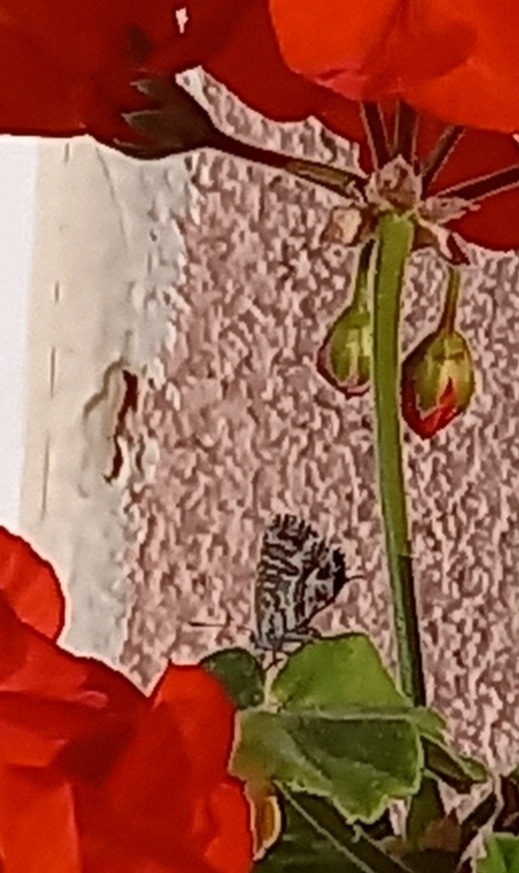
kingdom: Animalia
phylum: Arthropoda
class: Insecta
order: Lepidoptera
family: Lycaenidae
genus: Cacyreus
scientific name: Cacyreus marshalli
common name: Geranium bronze
